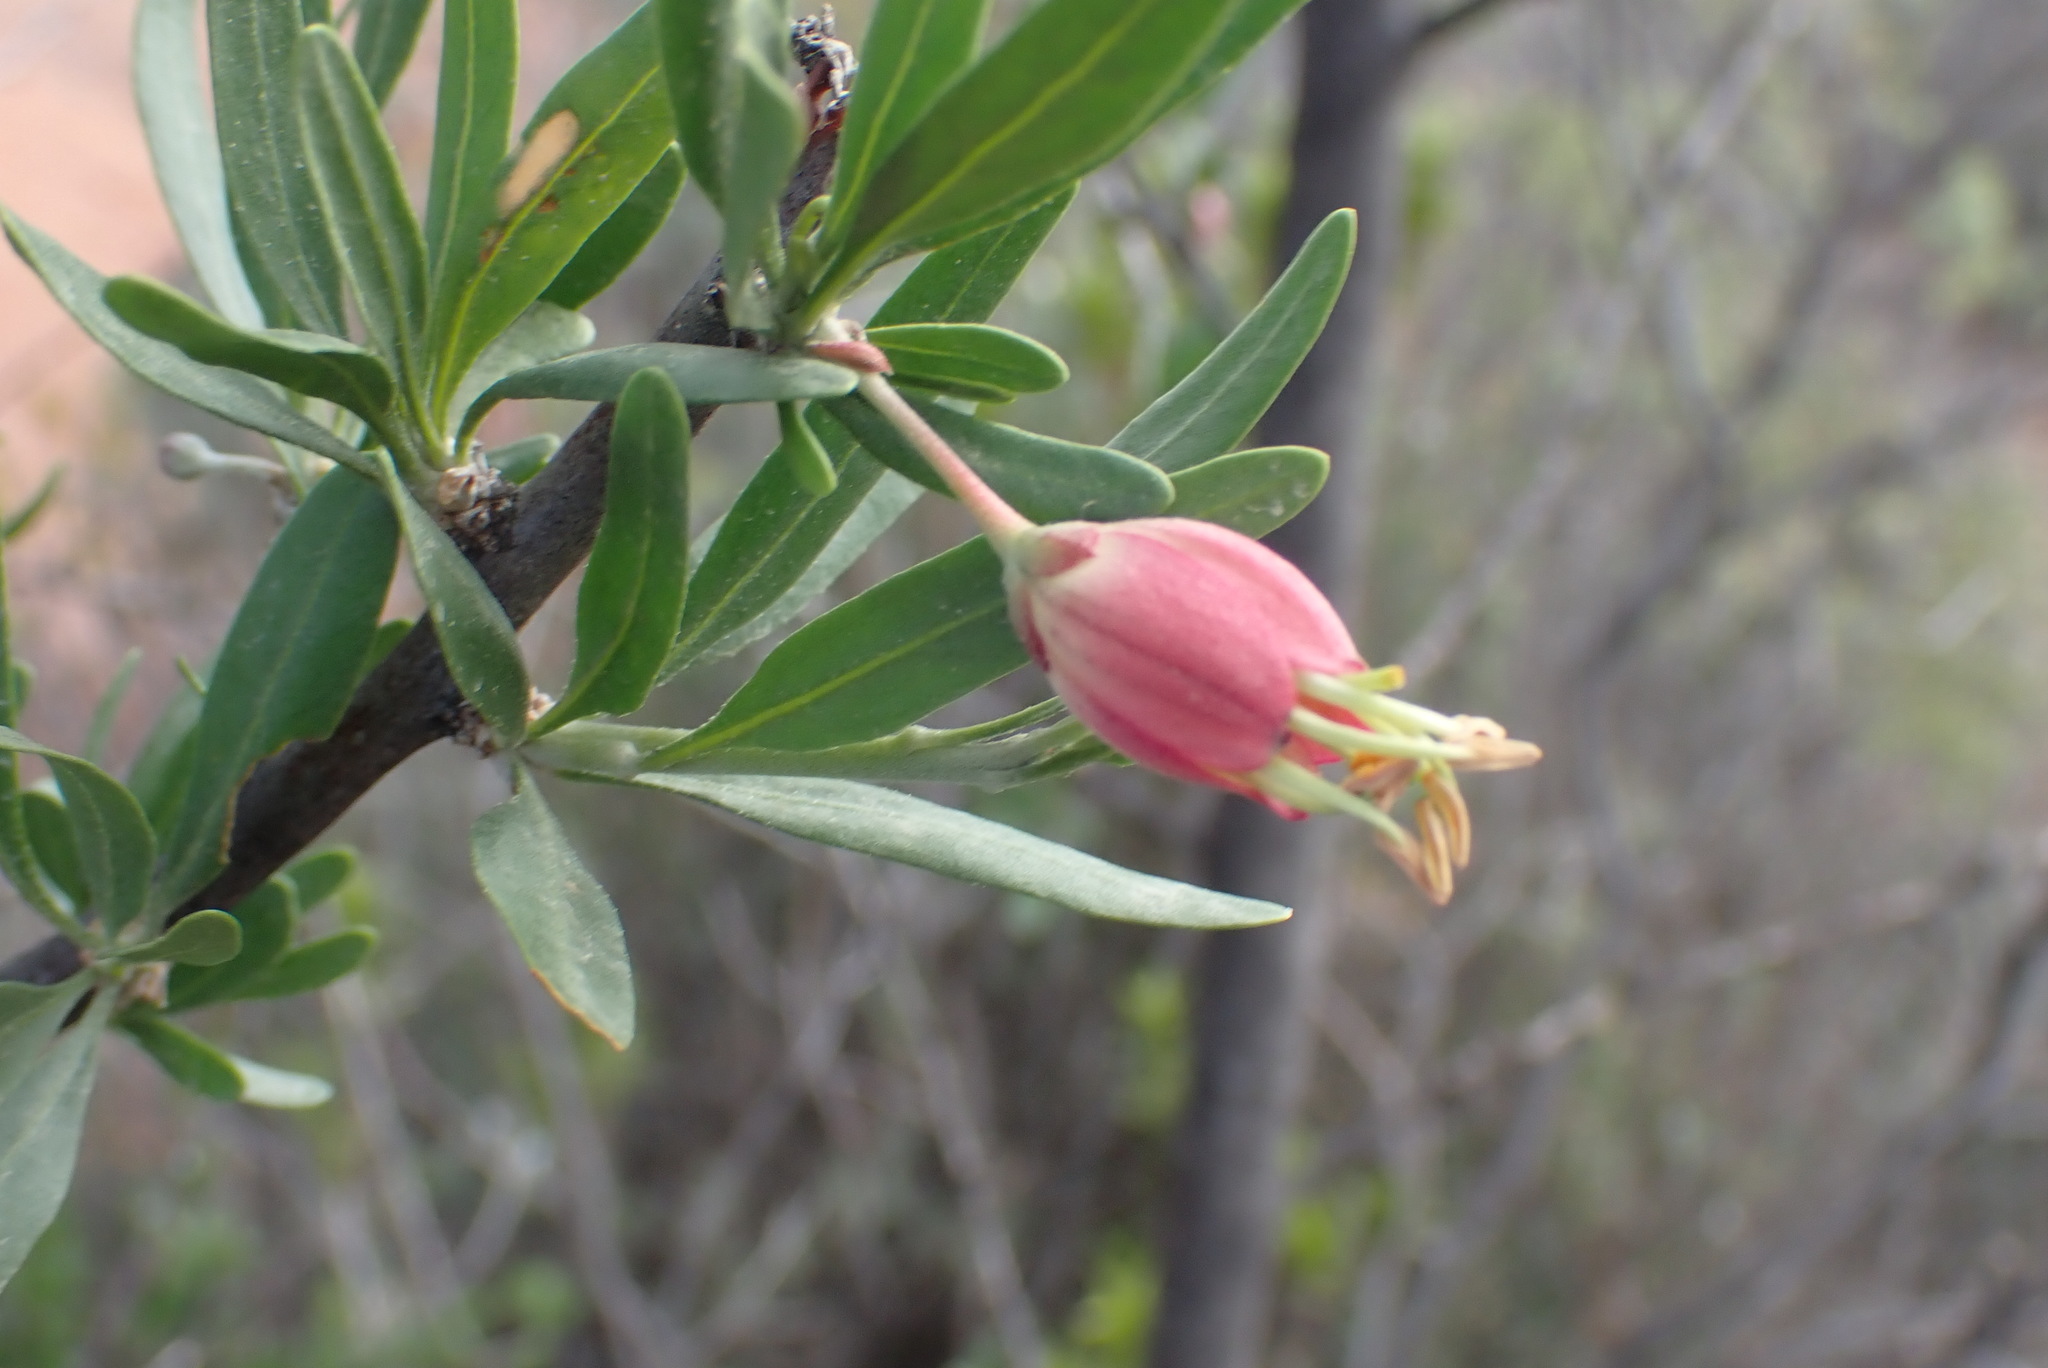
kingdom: Plantae
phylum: Tracheophyta
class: Magnoliopsida
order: Sapindales
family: Meliaceae
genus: Nymania
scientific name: Nymania capensis
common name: Chinese lantern tree
